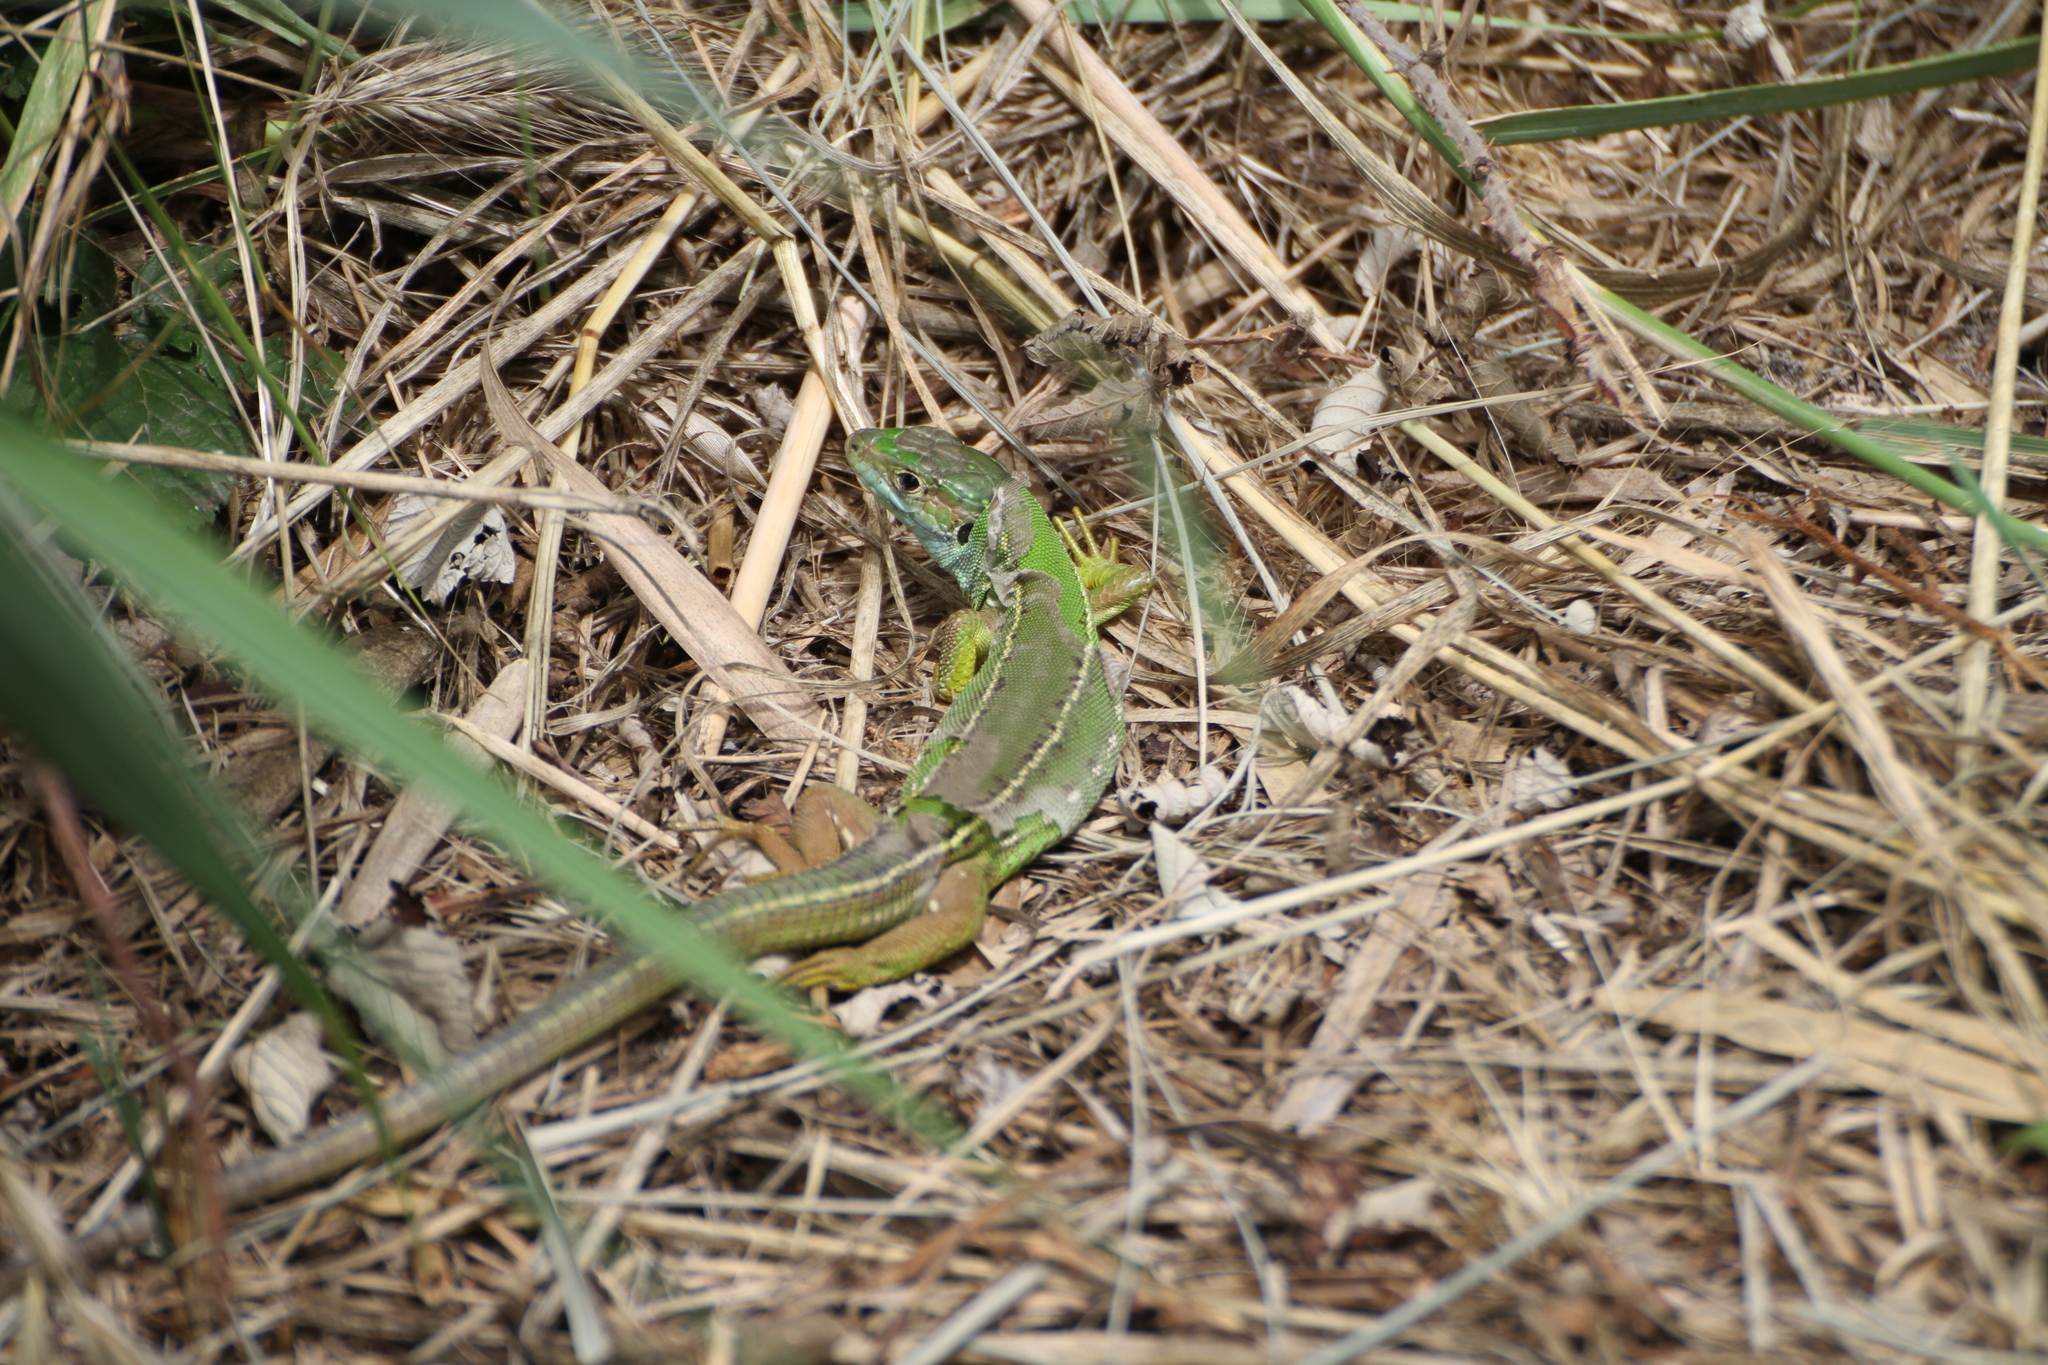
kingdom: Animalia
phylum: Chordata
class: Squamata
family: Lacertidae
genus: Lacerta
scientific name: Lacerta bilineata
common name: Western green lizard
